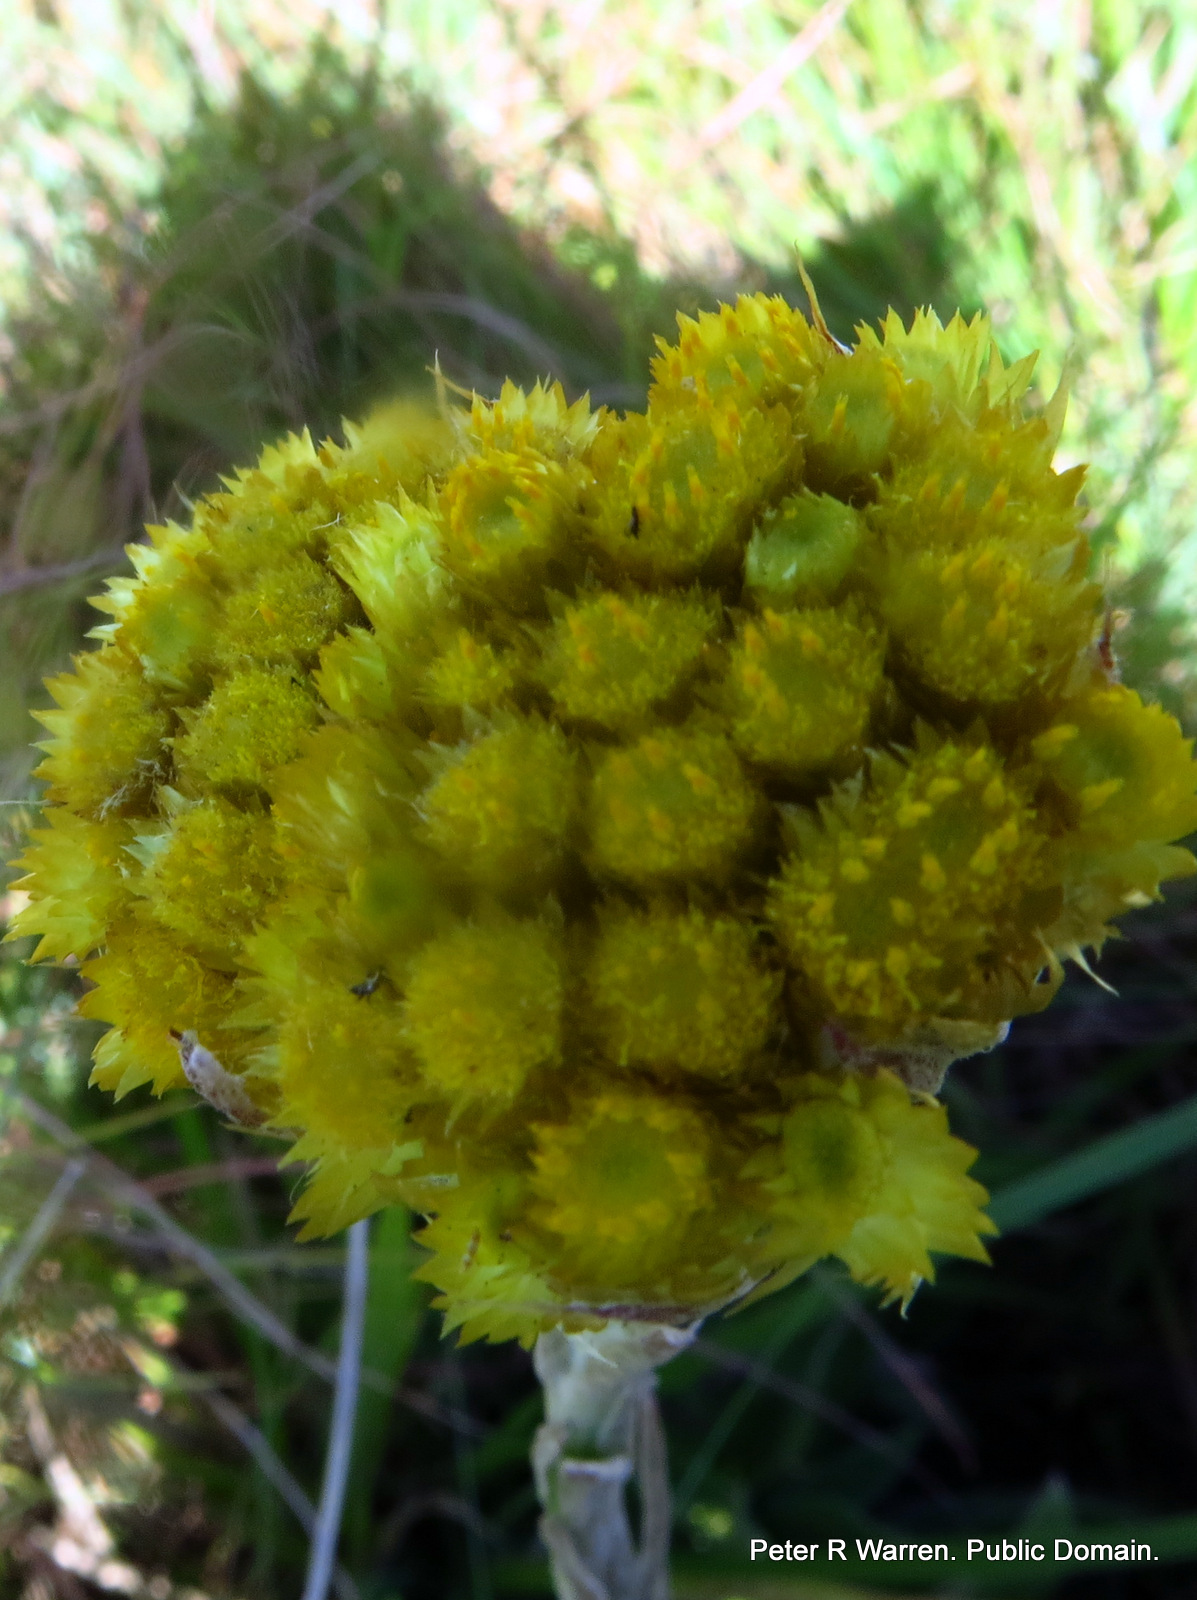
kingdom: Plantae
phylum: Tracheophyta
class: Magnoliopsida
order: Asterales
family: Asteraceae
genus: Helichrysum
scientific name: Helichrysum cephaloideum
